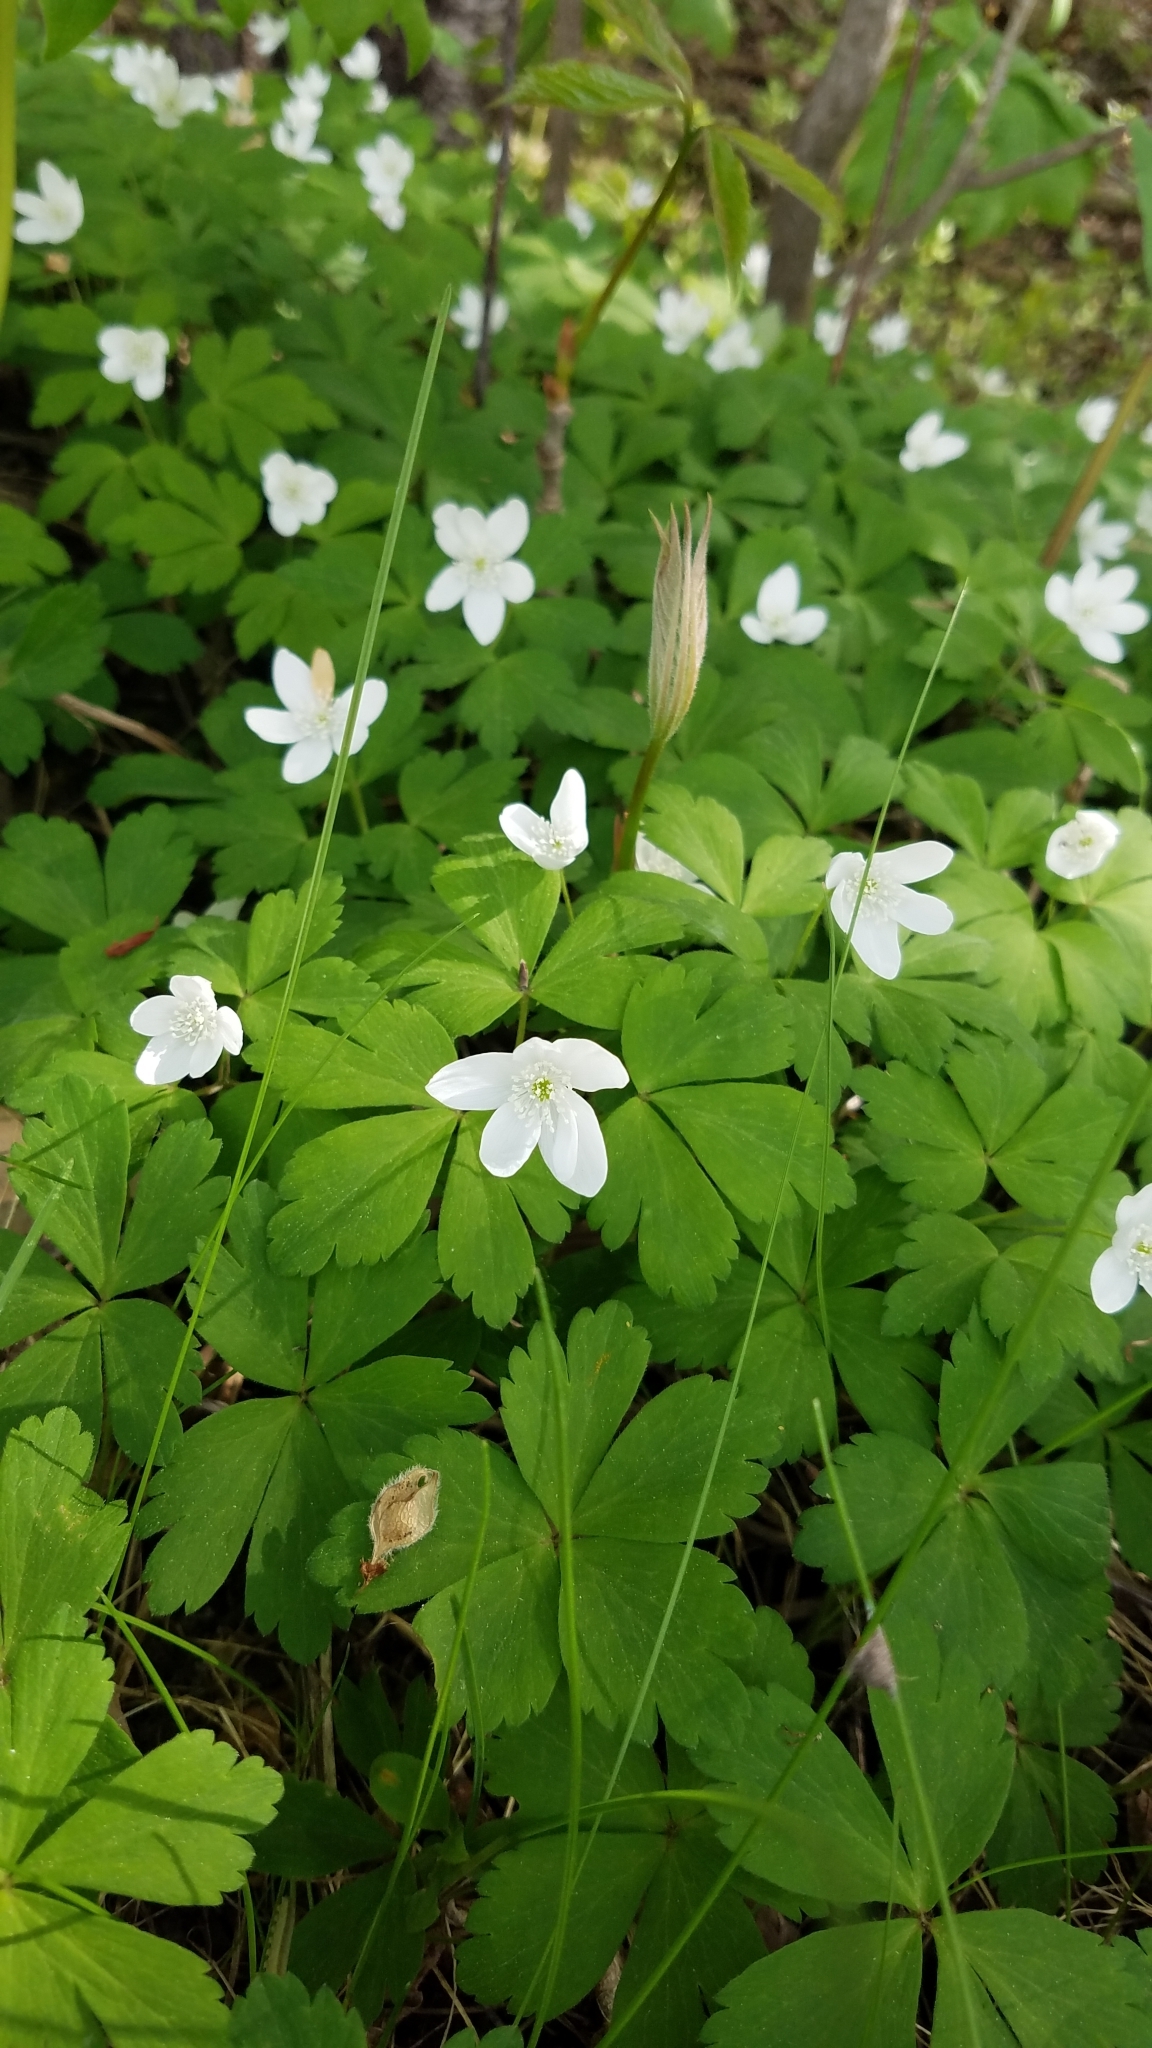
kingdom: Plantae
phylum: Tracheophyta
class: Magnoliopsida
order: Ranunculales
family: Ranunculaceae
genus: Anemone
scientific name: Anemone quinquefolia
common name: Wood anemone
